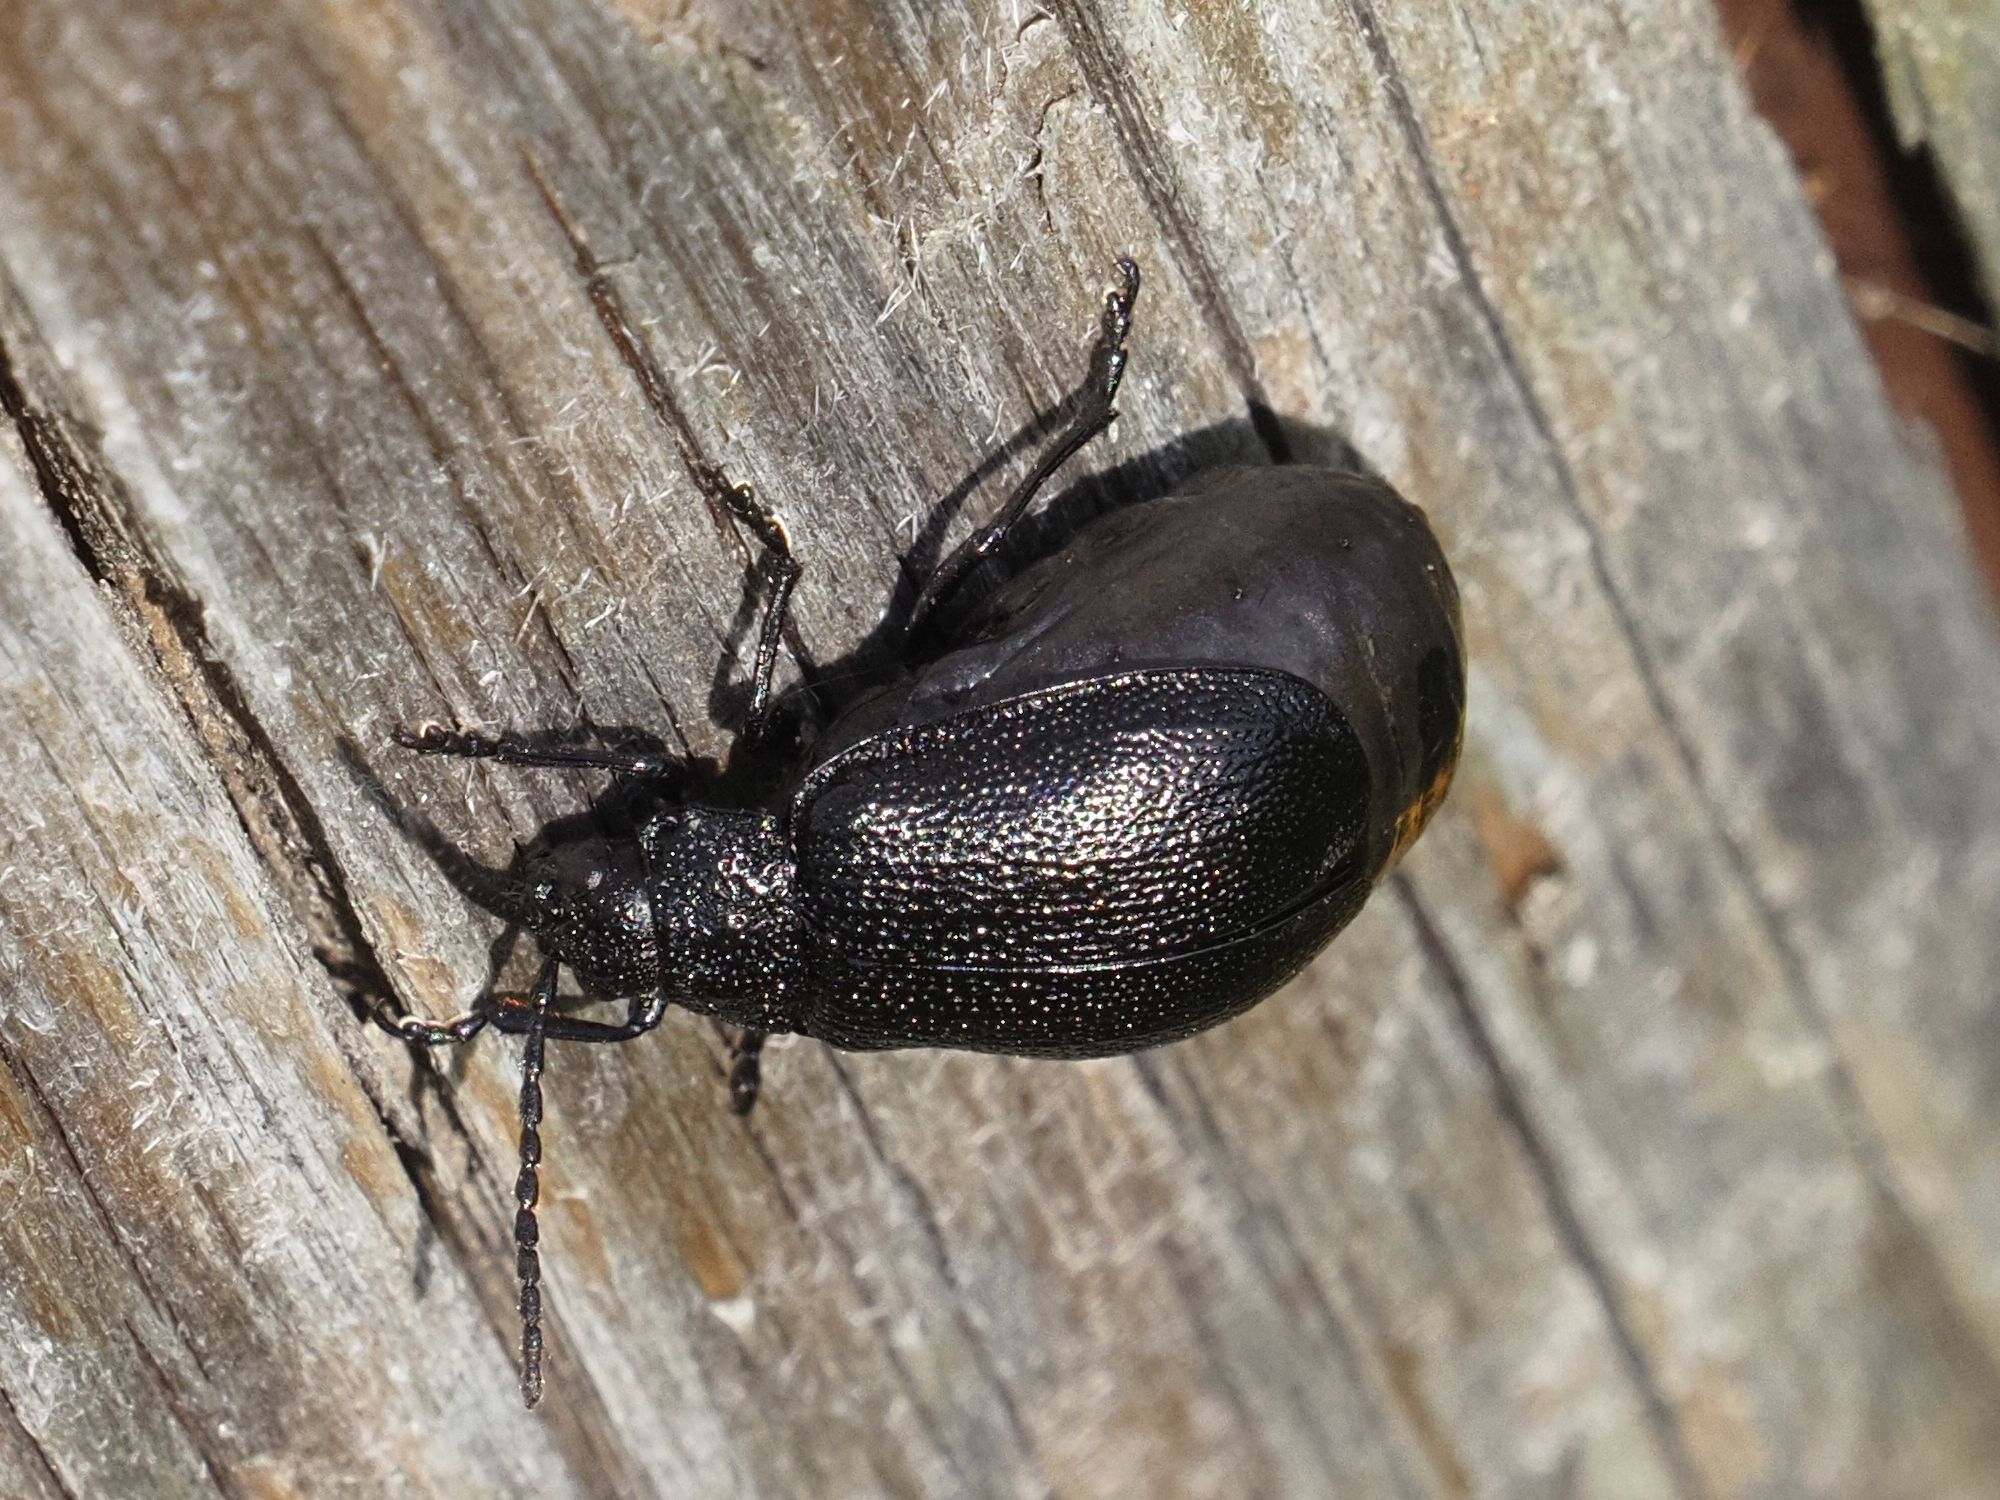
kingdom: Animalia
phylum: Arthropoda
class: Insecta
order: Coleoptera
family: Chrysomelidae
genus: Galeruca
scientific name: Galeruca tanaceti
